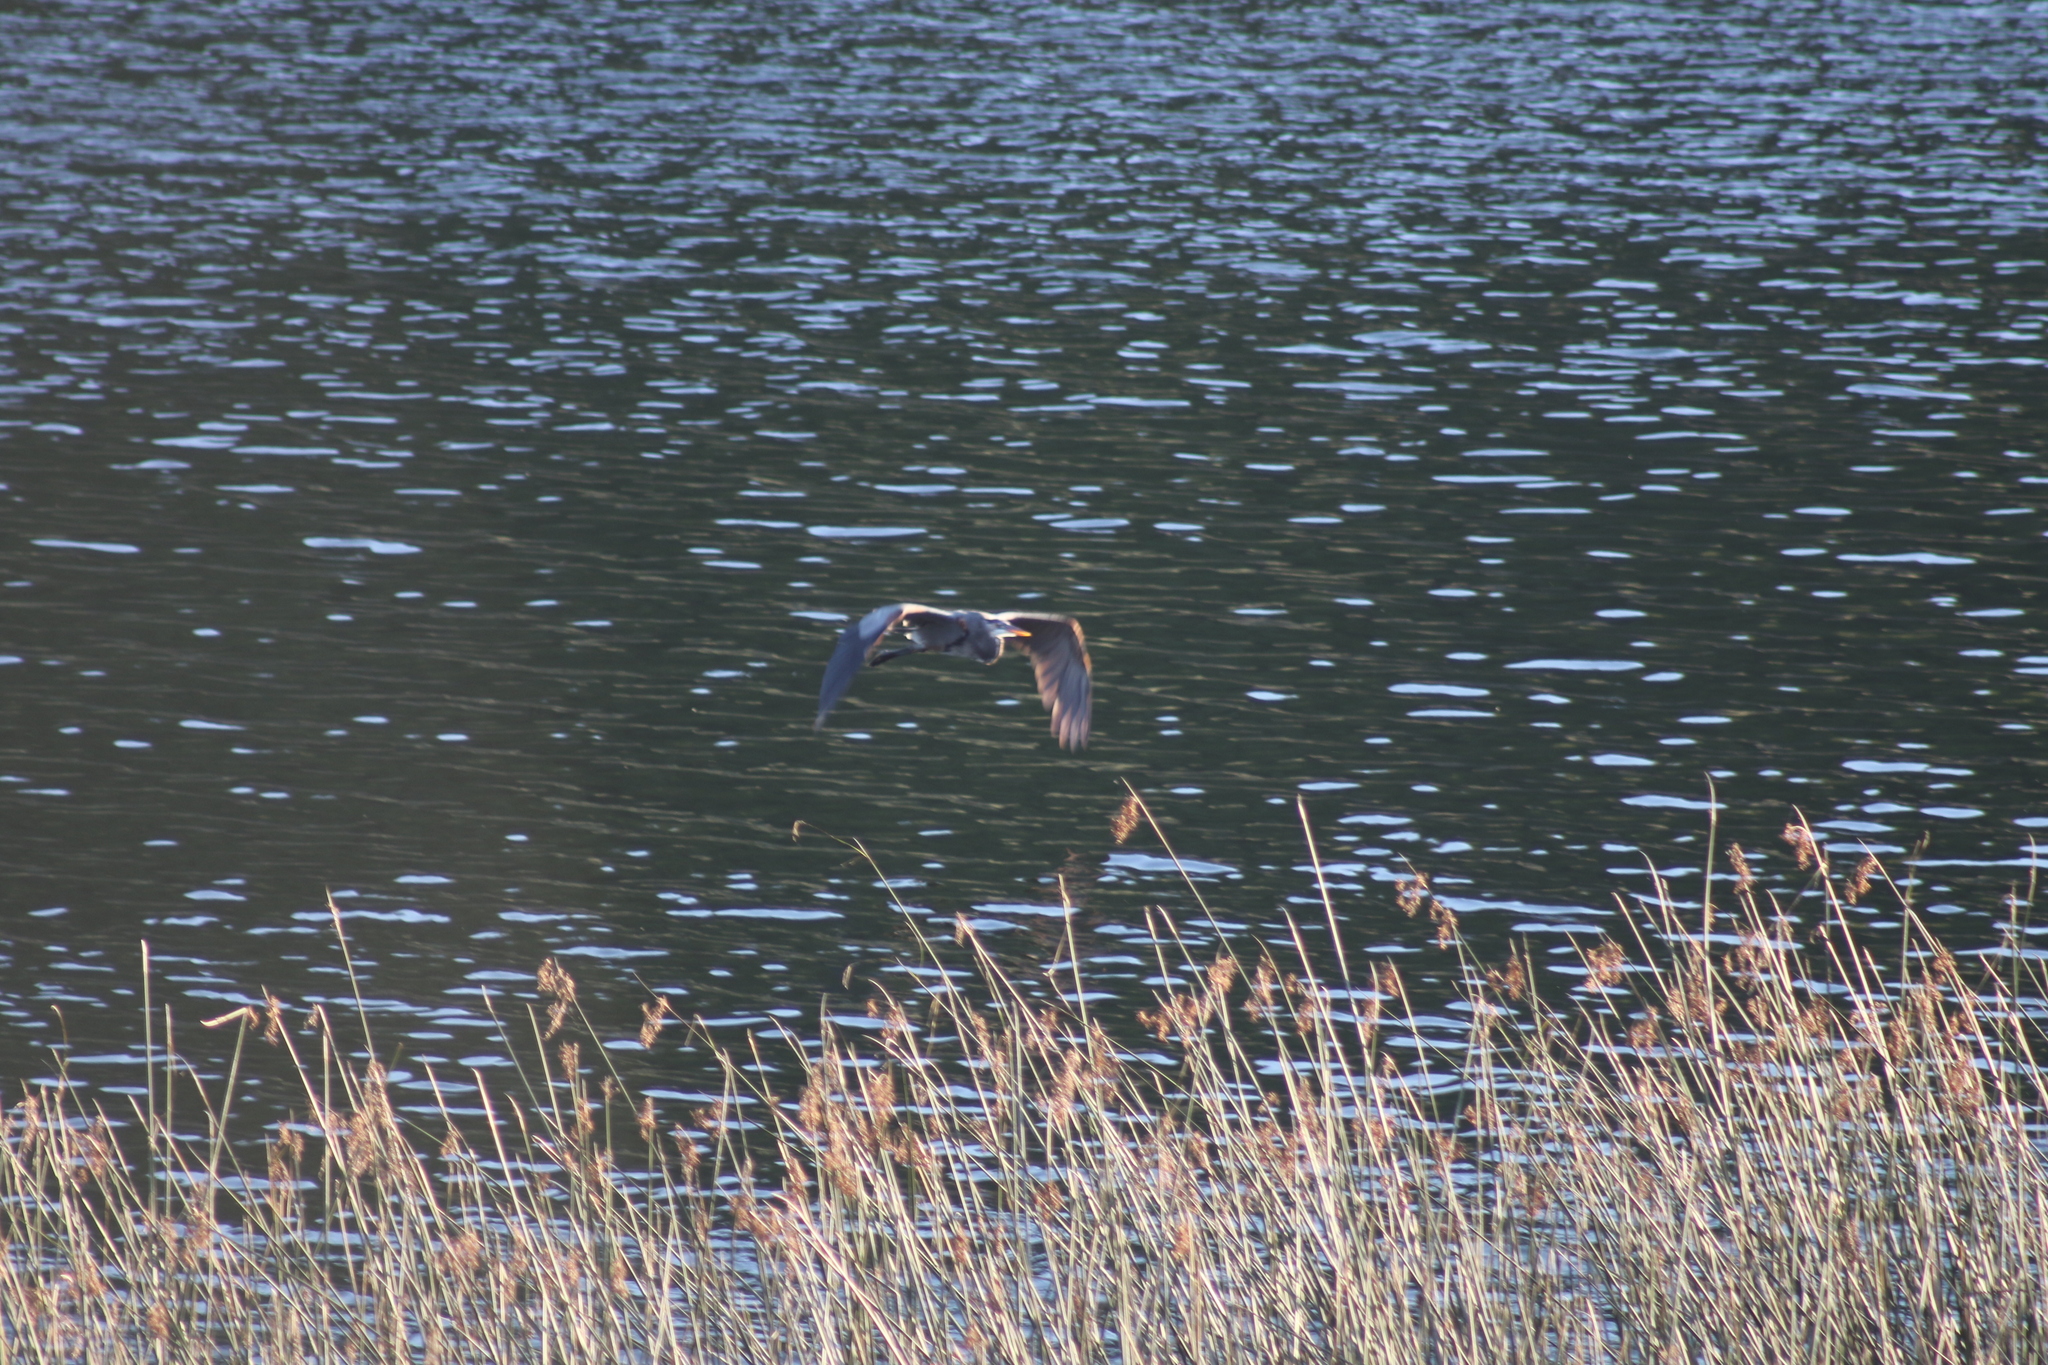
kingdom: Animalia
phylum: Chordata
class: Aves
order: Pelecaniformes
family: Ardeidae
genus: Ardea
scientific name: Ardea herodias
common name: Great blue heron
